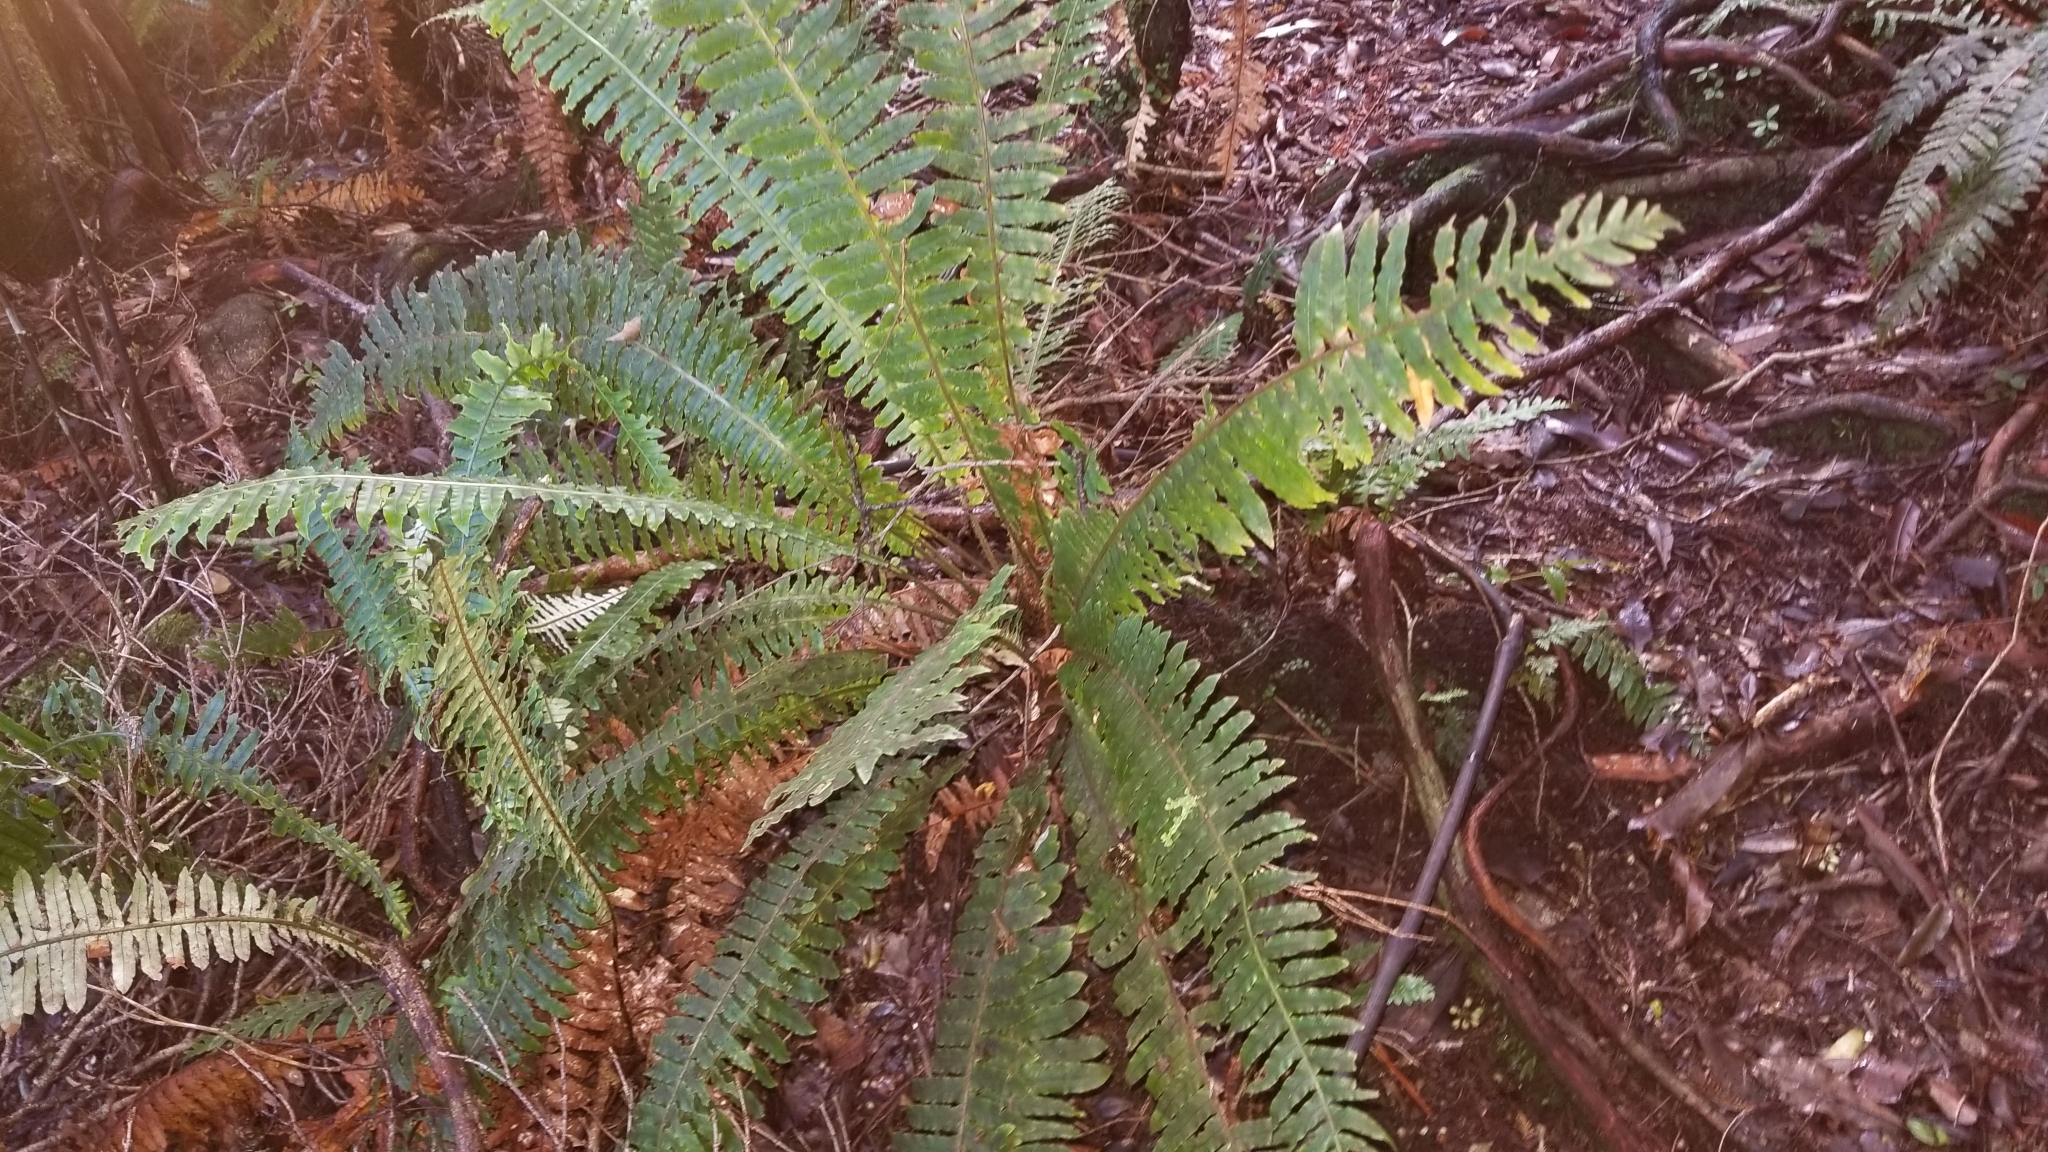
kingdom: Plantae
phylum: Tracheophyta
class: Polypodiopsida
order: Polypodiales
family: Blechnaceae
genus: Lomaria
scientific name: Lomaria discolor
